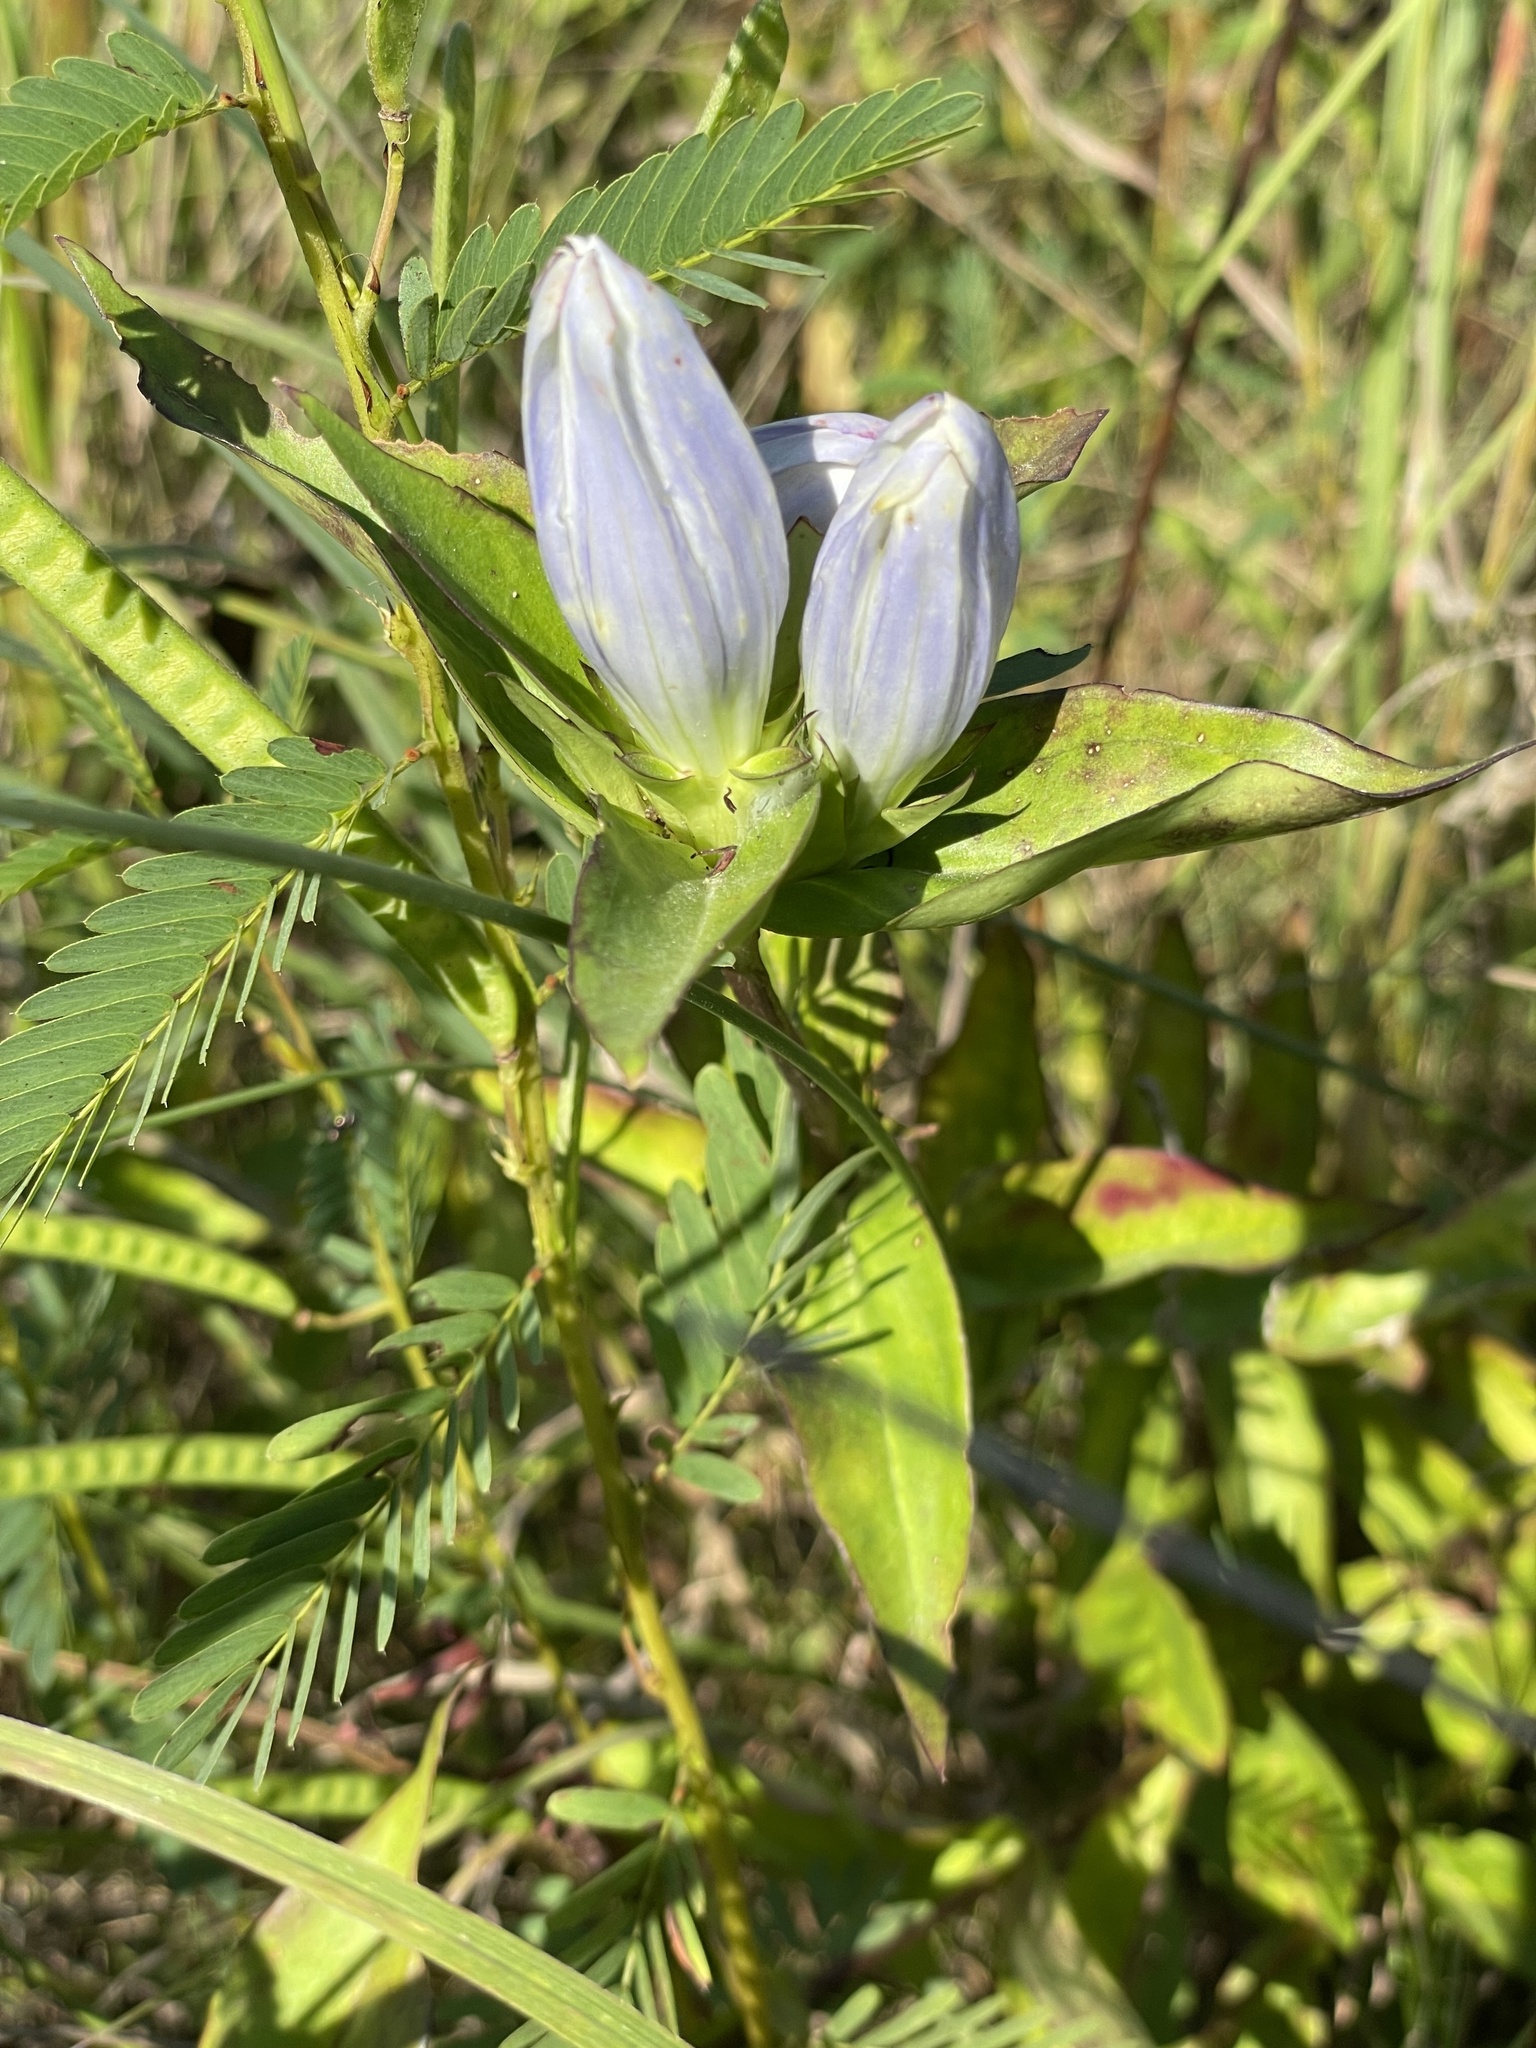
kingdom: Plantae
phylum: Tracheophyta
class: Magnoliopsida
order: Gentianales
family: Gentianaceae
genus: Gentiana
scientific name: Gentiana andrewsii
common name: Bottle gentian
